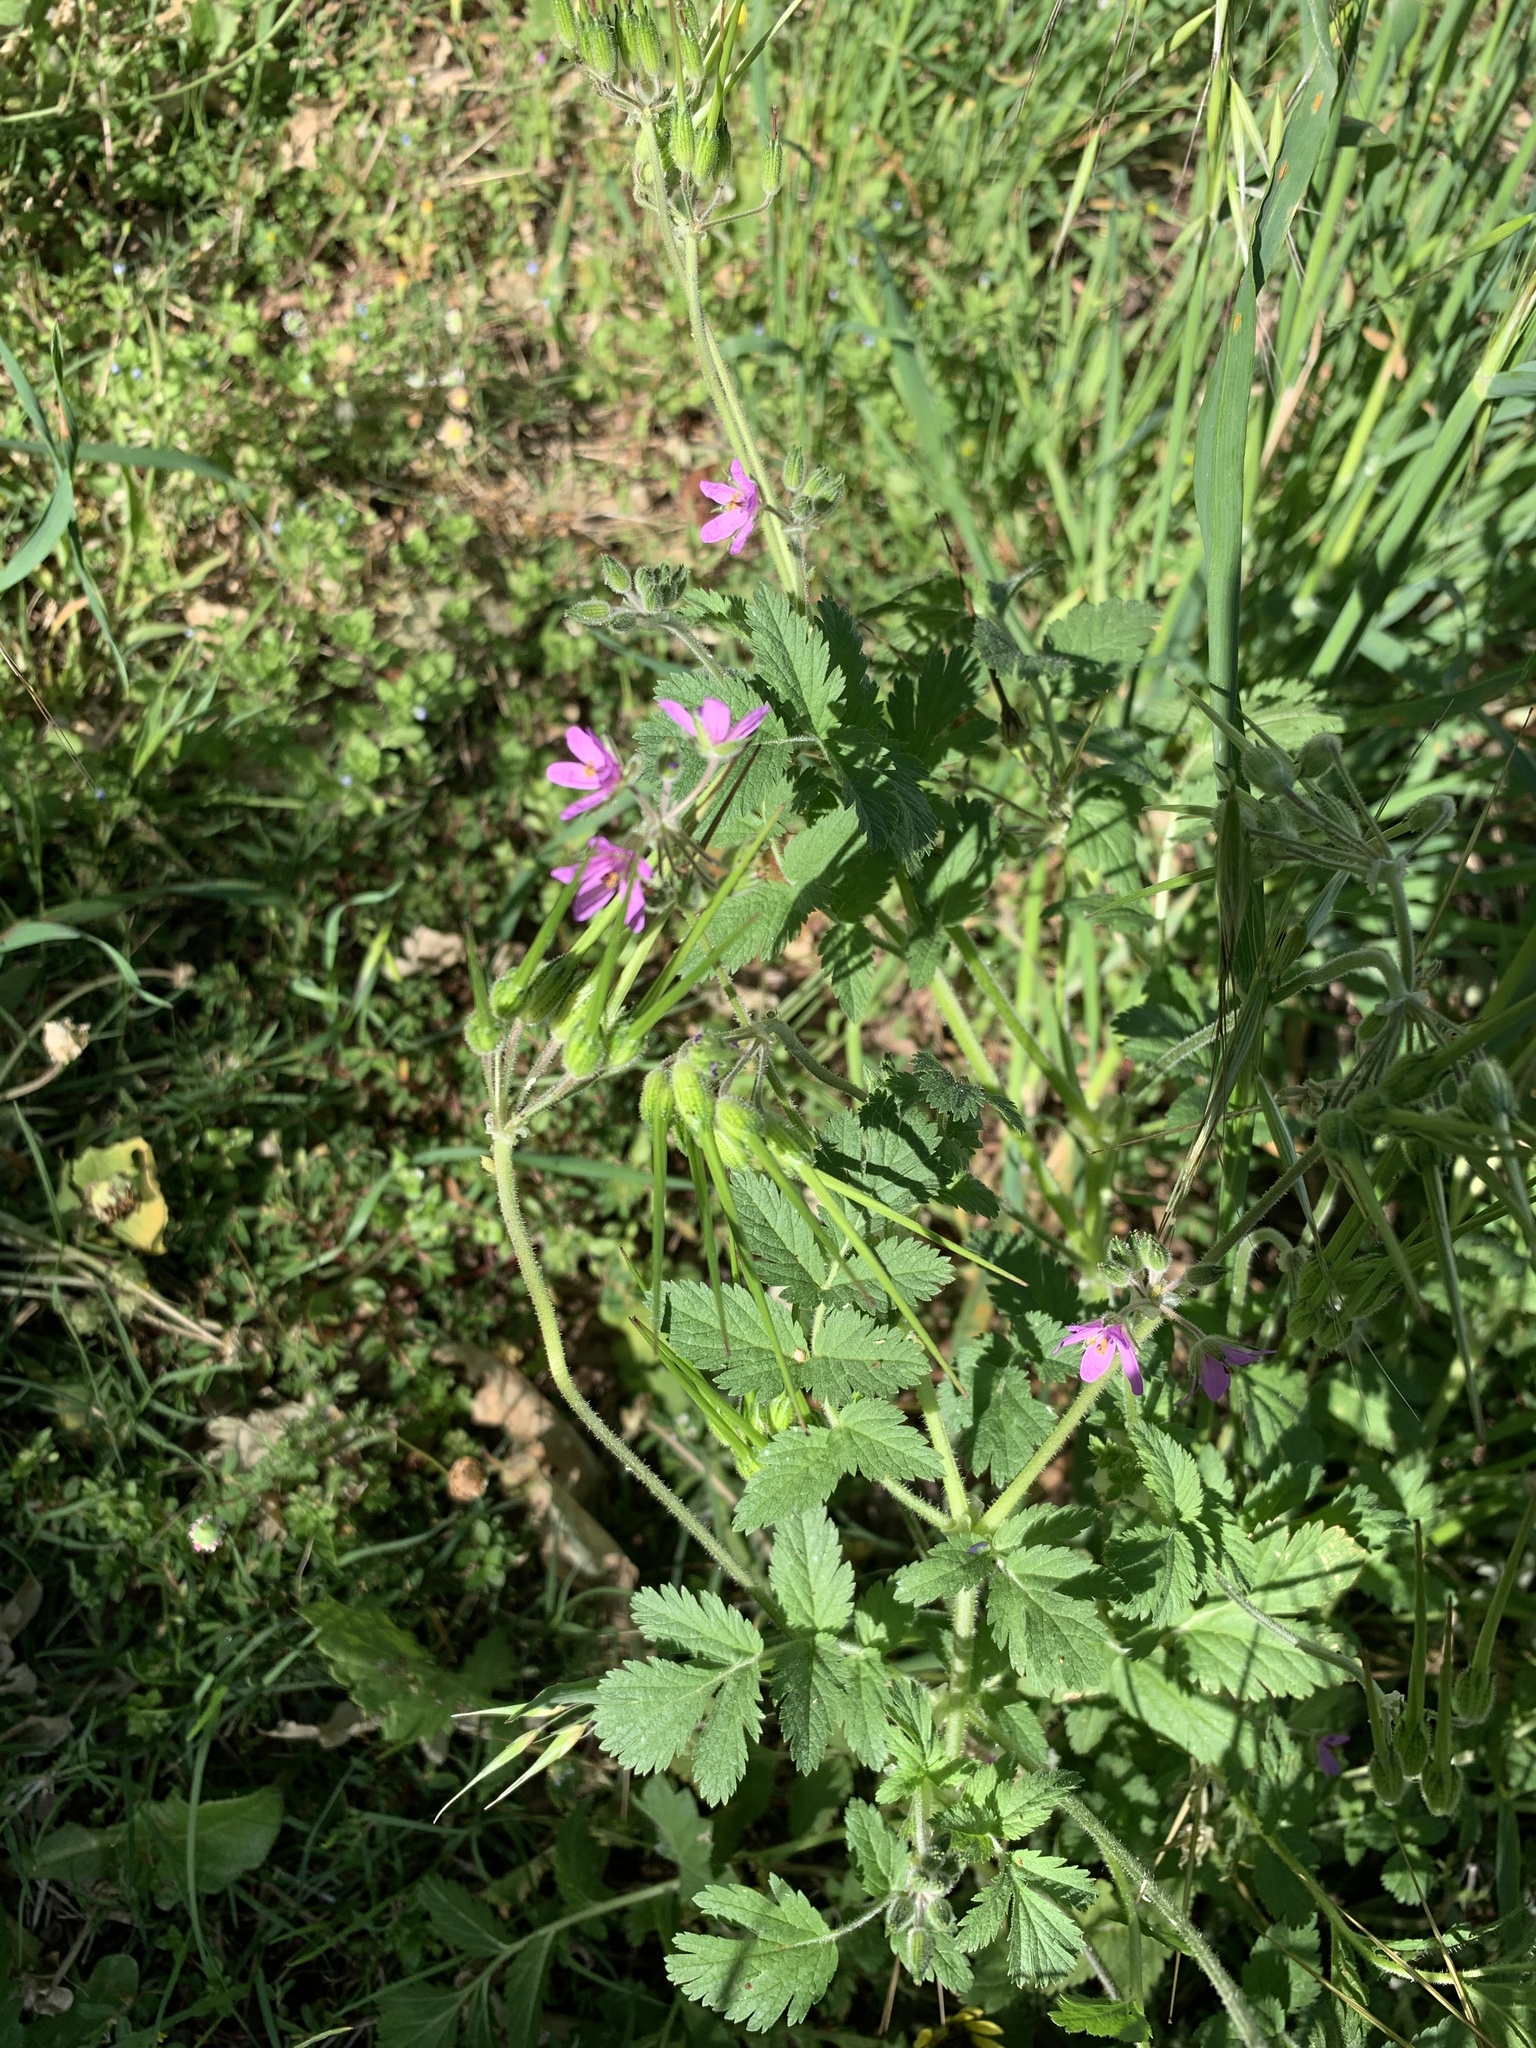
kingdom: Plantae
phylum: Tracheophyta
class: Magnoliopsida
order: Geraniales
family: Geraniaceae
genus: Erodium
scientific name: Erodium moschatum
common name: Musk stork's-bill
